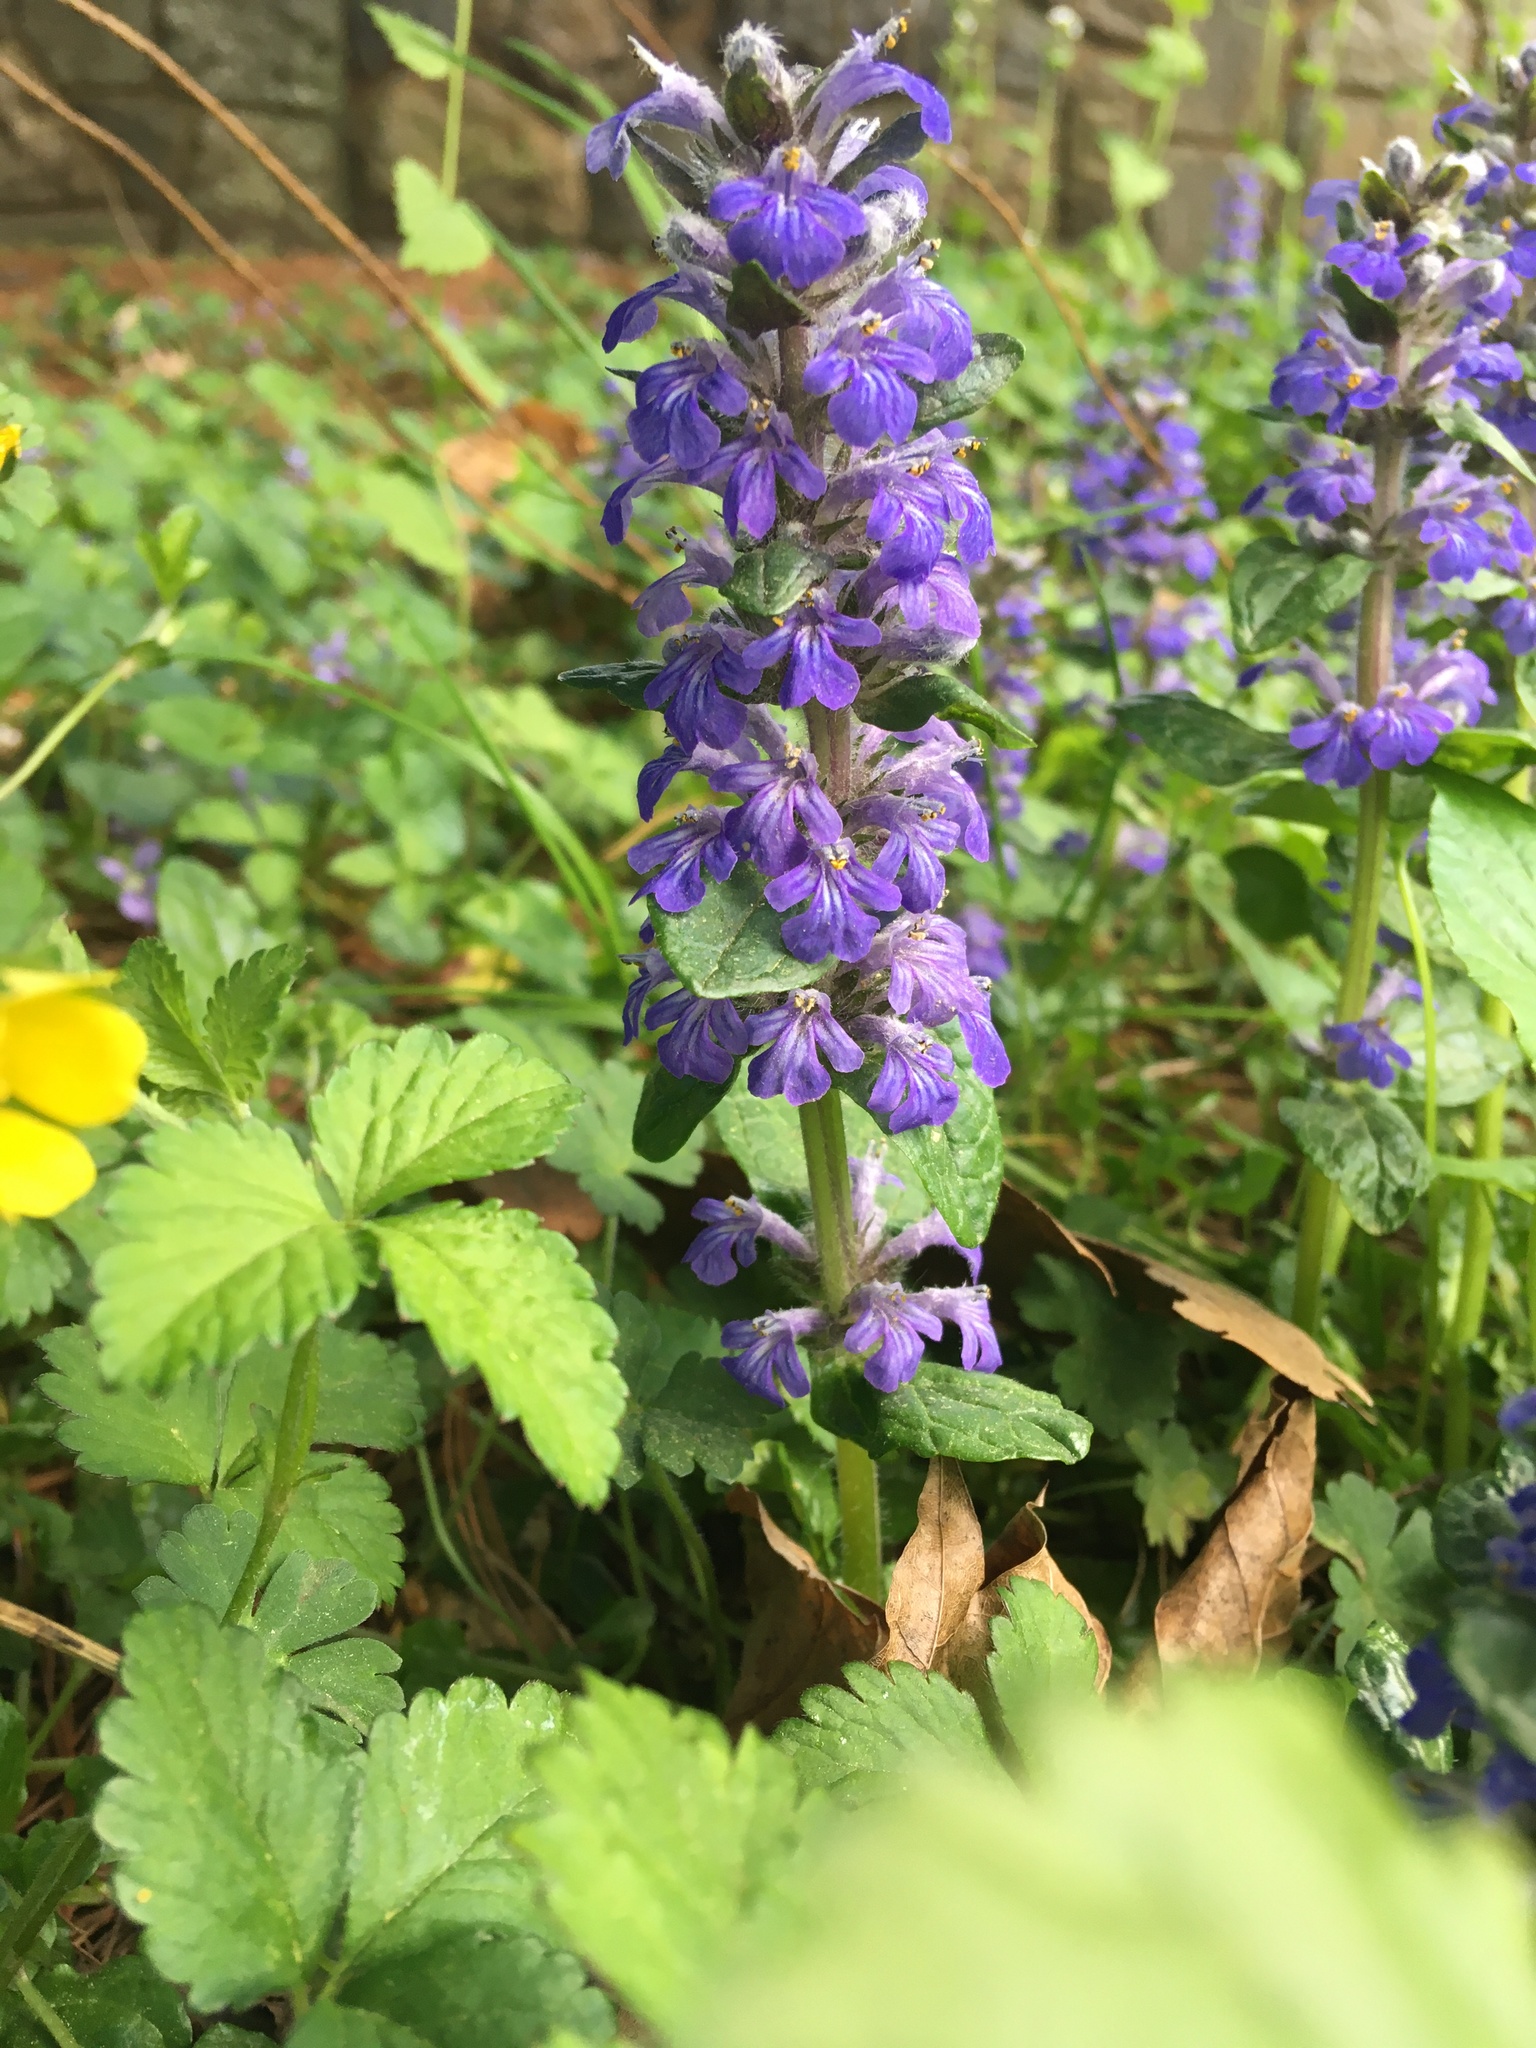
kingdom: Plantae
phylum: Tracheophyta
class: Magnoliopsida
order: Lamiales
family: Lamiaceae
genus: Ajuga
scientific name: Ajuga reptans
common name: Bugle
